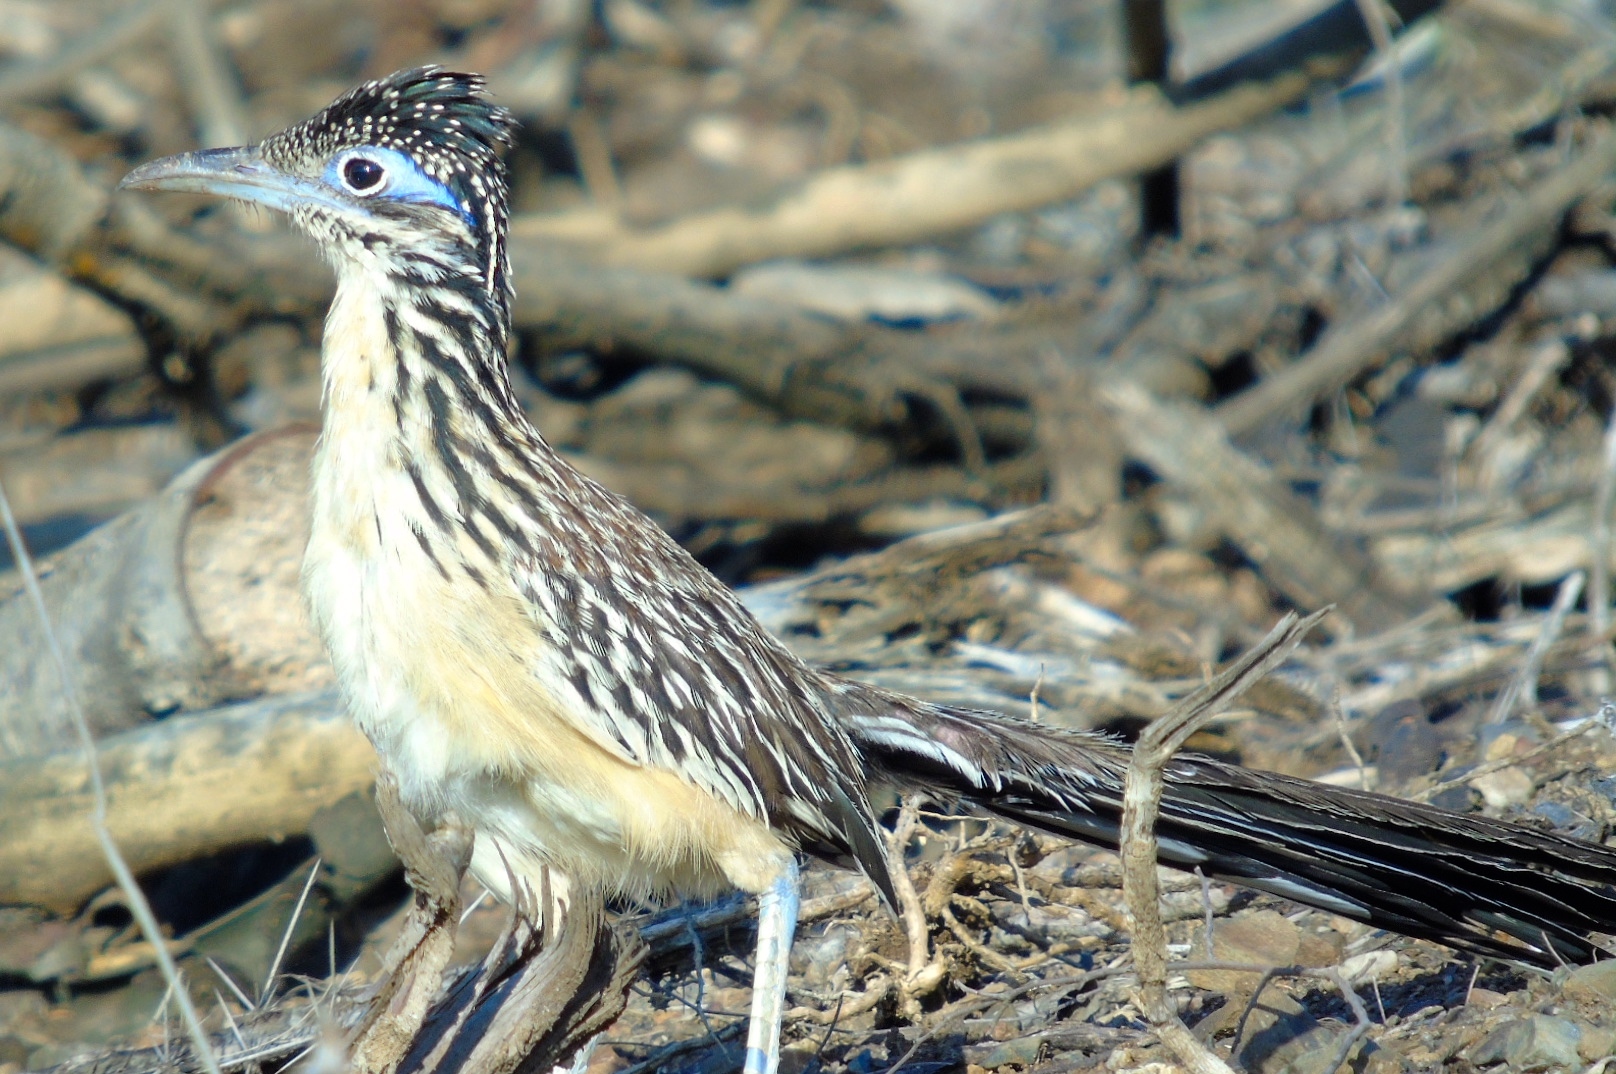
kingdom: Animalia
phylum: Chordata
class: Aves
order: Cuculiformes
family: Cuculidae
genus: Geococcyx
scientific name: Geococcyx velox
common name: Lesser roadrunner
